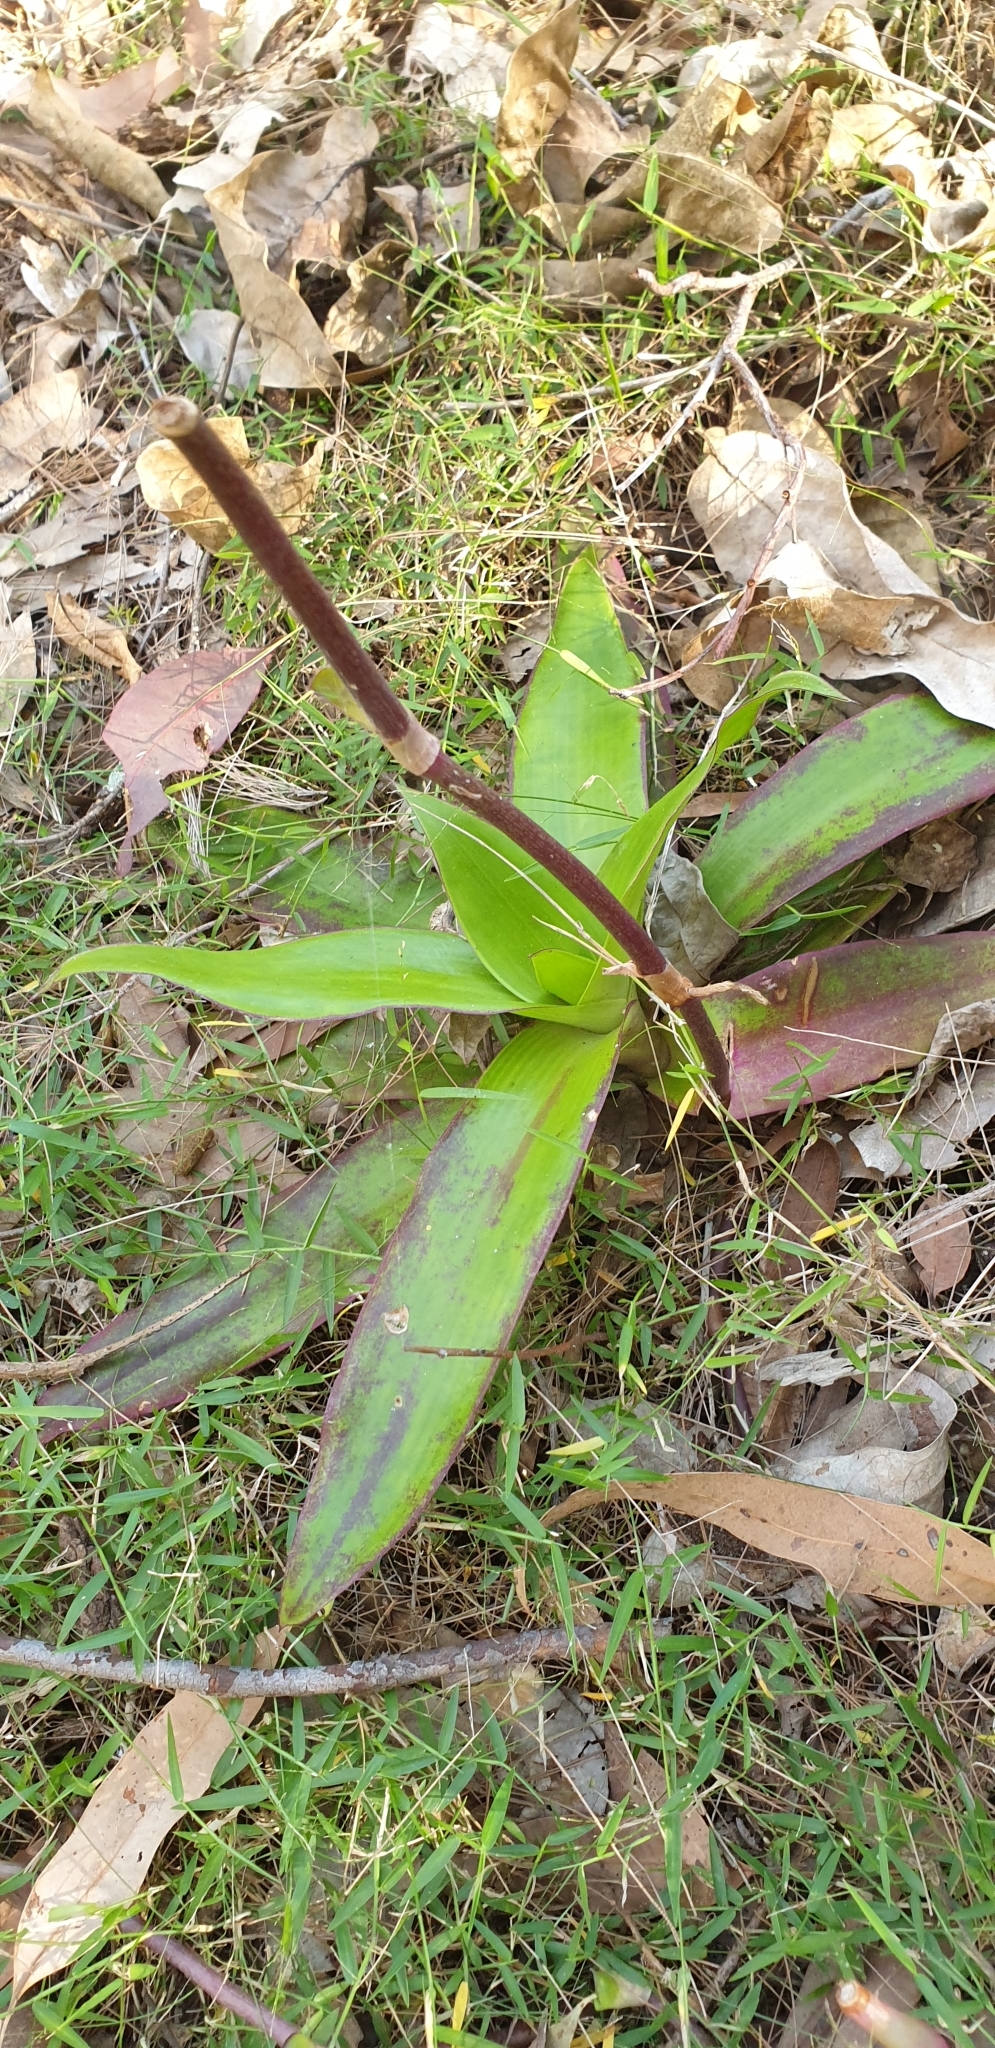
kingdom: Plantae
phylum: Tracheophyta
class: Liliopsida
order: Commelinales
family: Commelinaceae
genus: Callisia
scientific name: Callisia fragrans
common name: Basketplant
